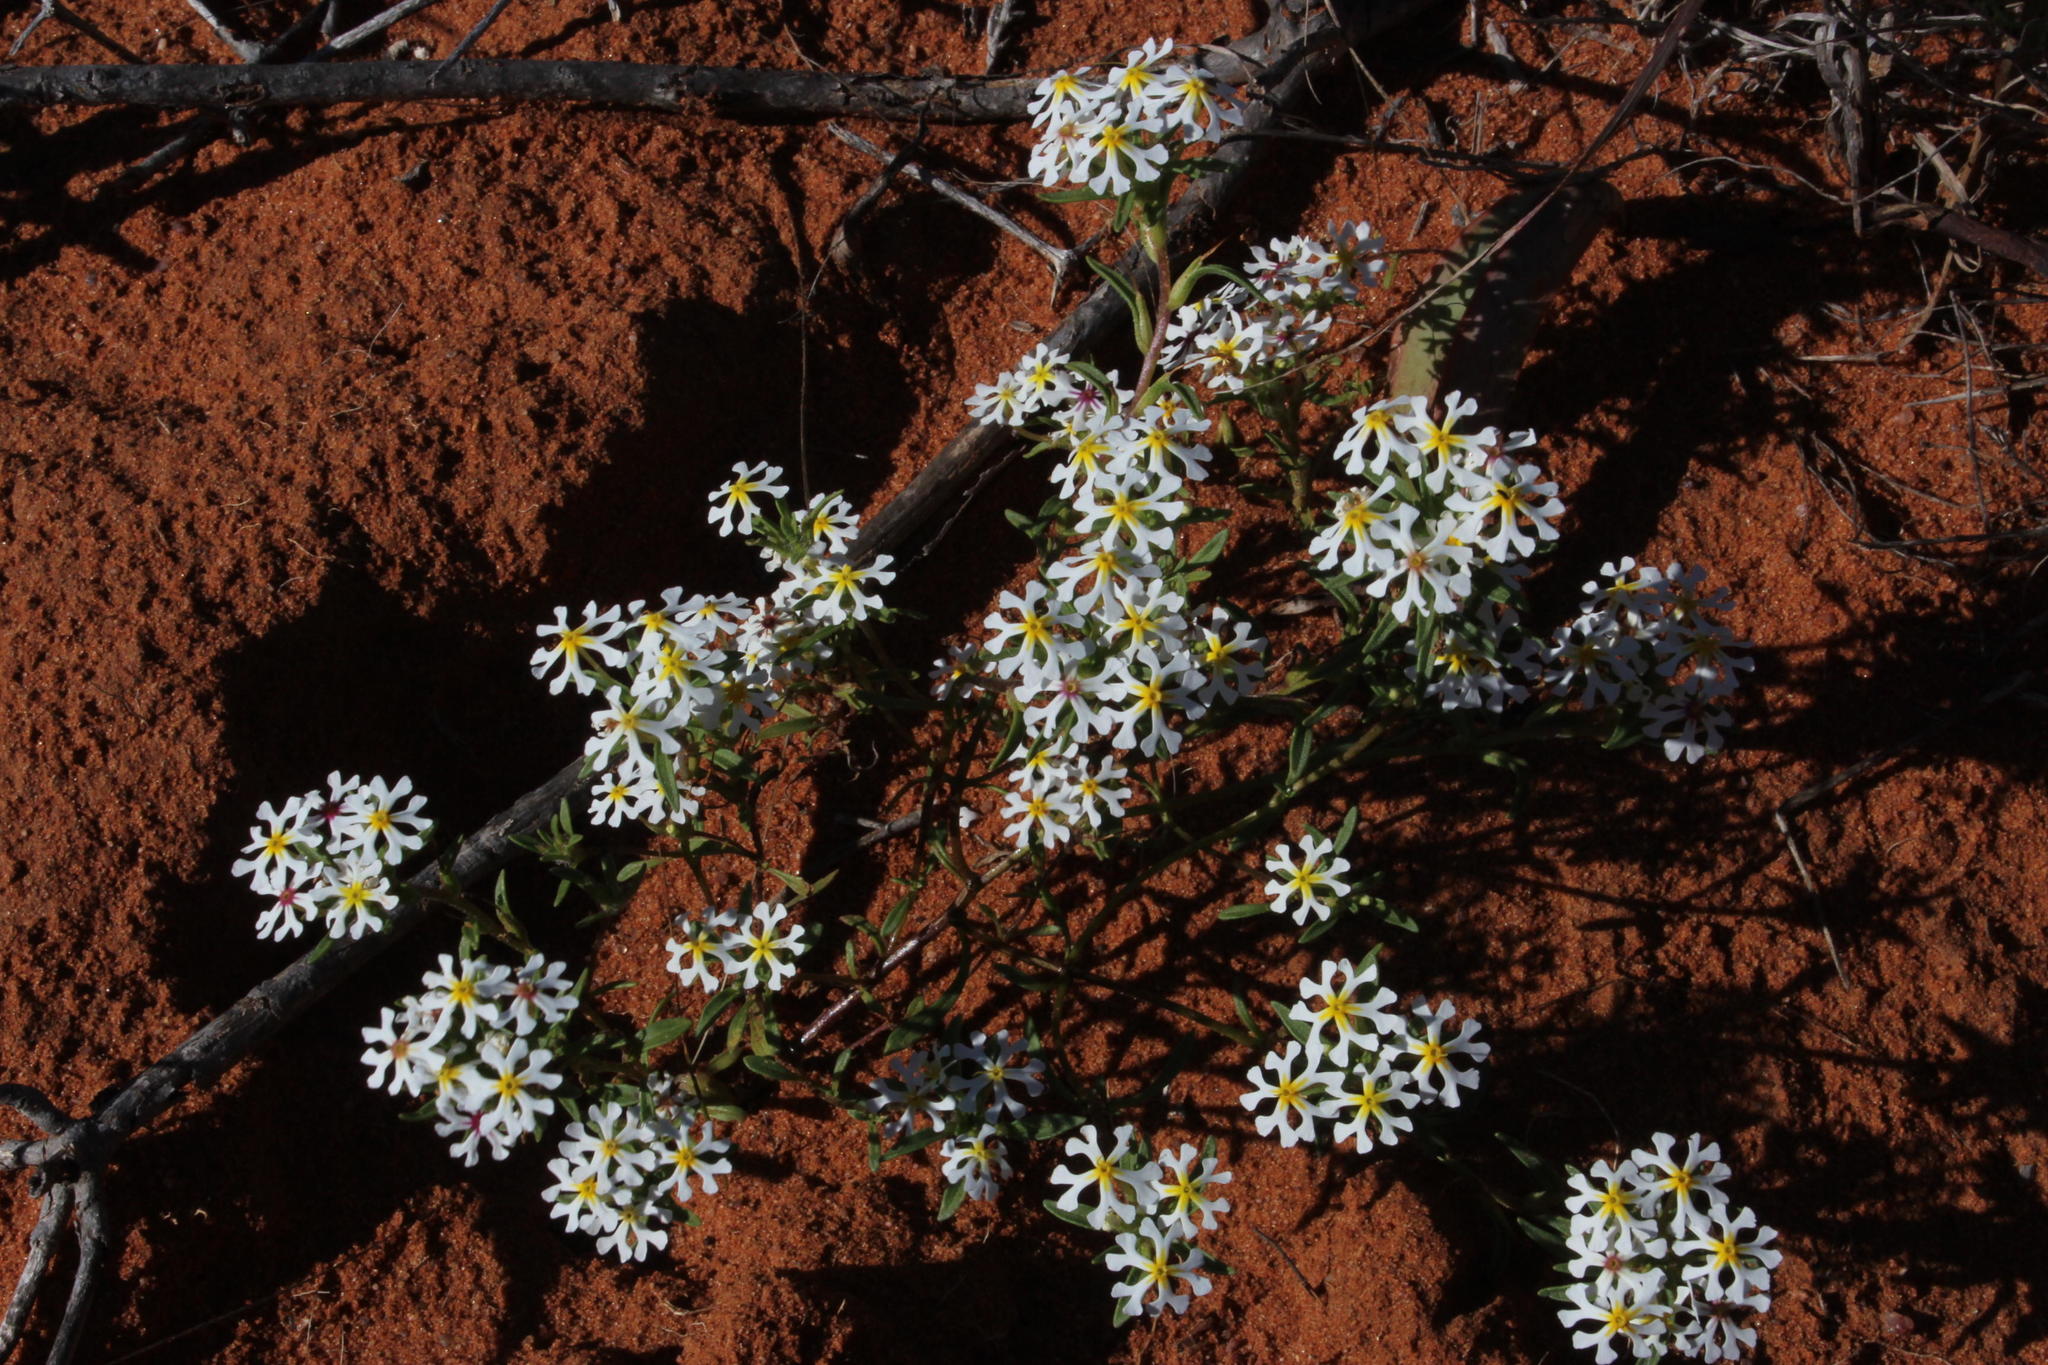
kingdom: Plantae
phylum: Tracheophyta
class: Magnoliopsida
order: Lamiales
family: Scrophulariaceae
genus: Zaluzianskya
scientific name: Zaluzianskya affinis
